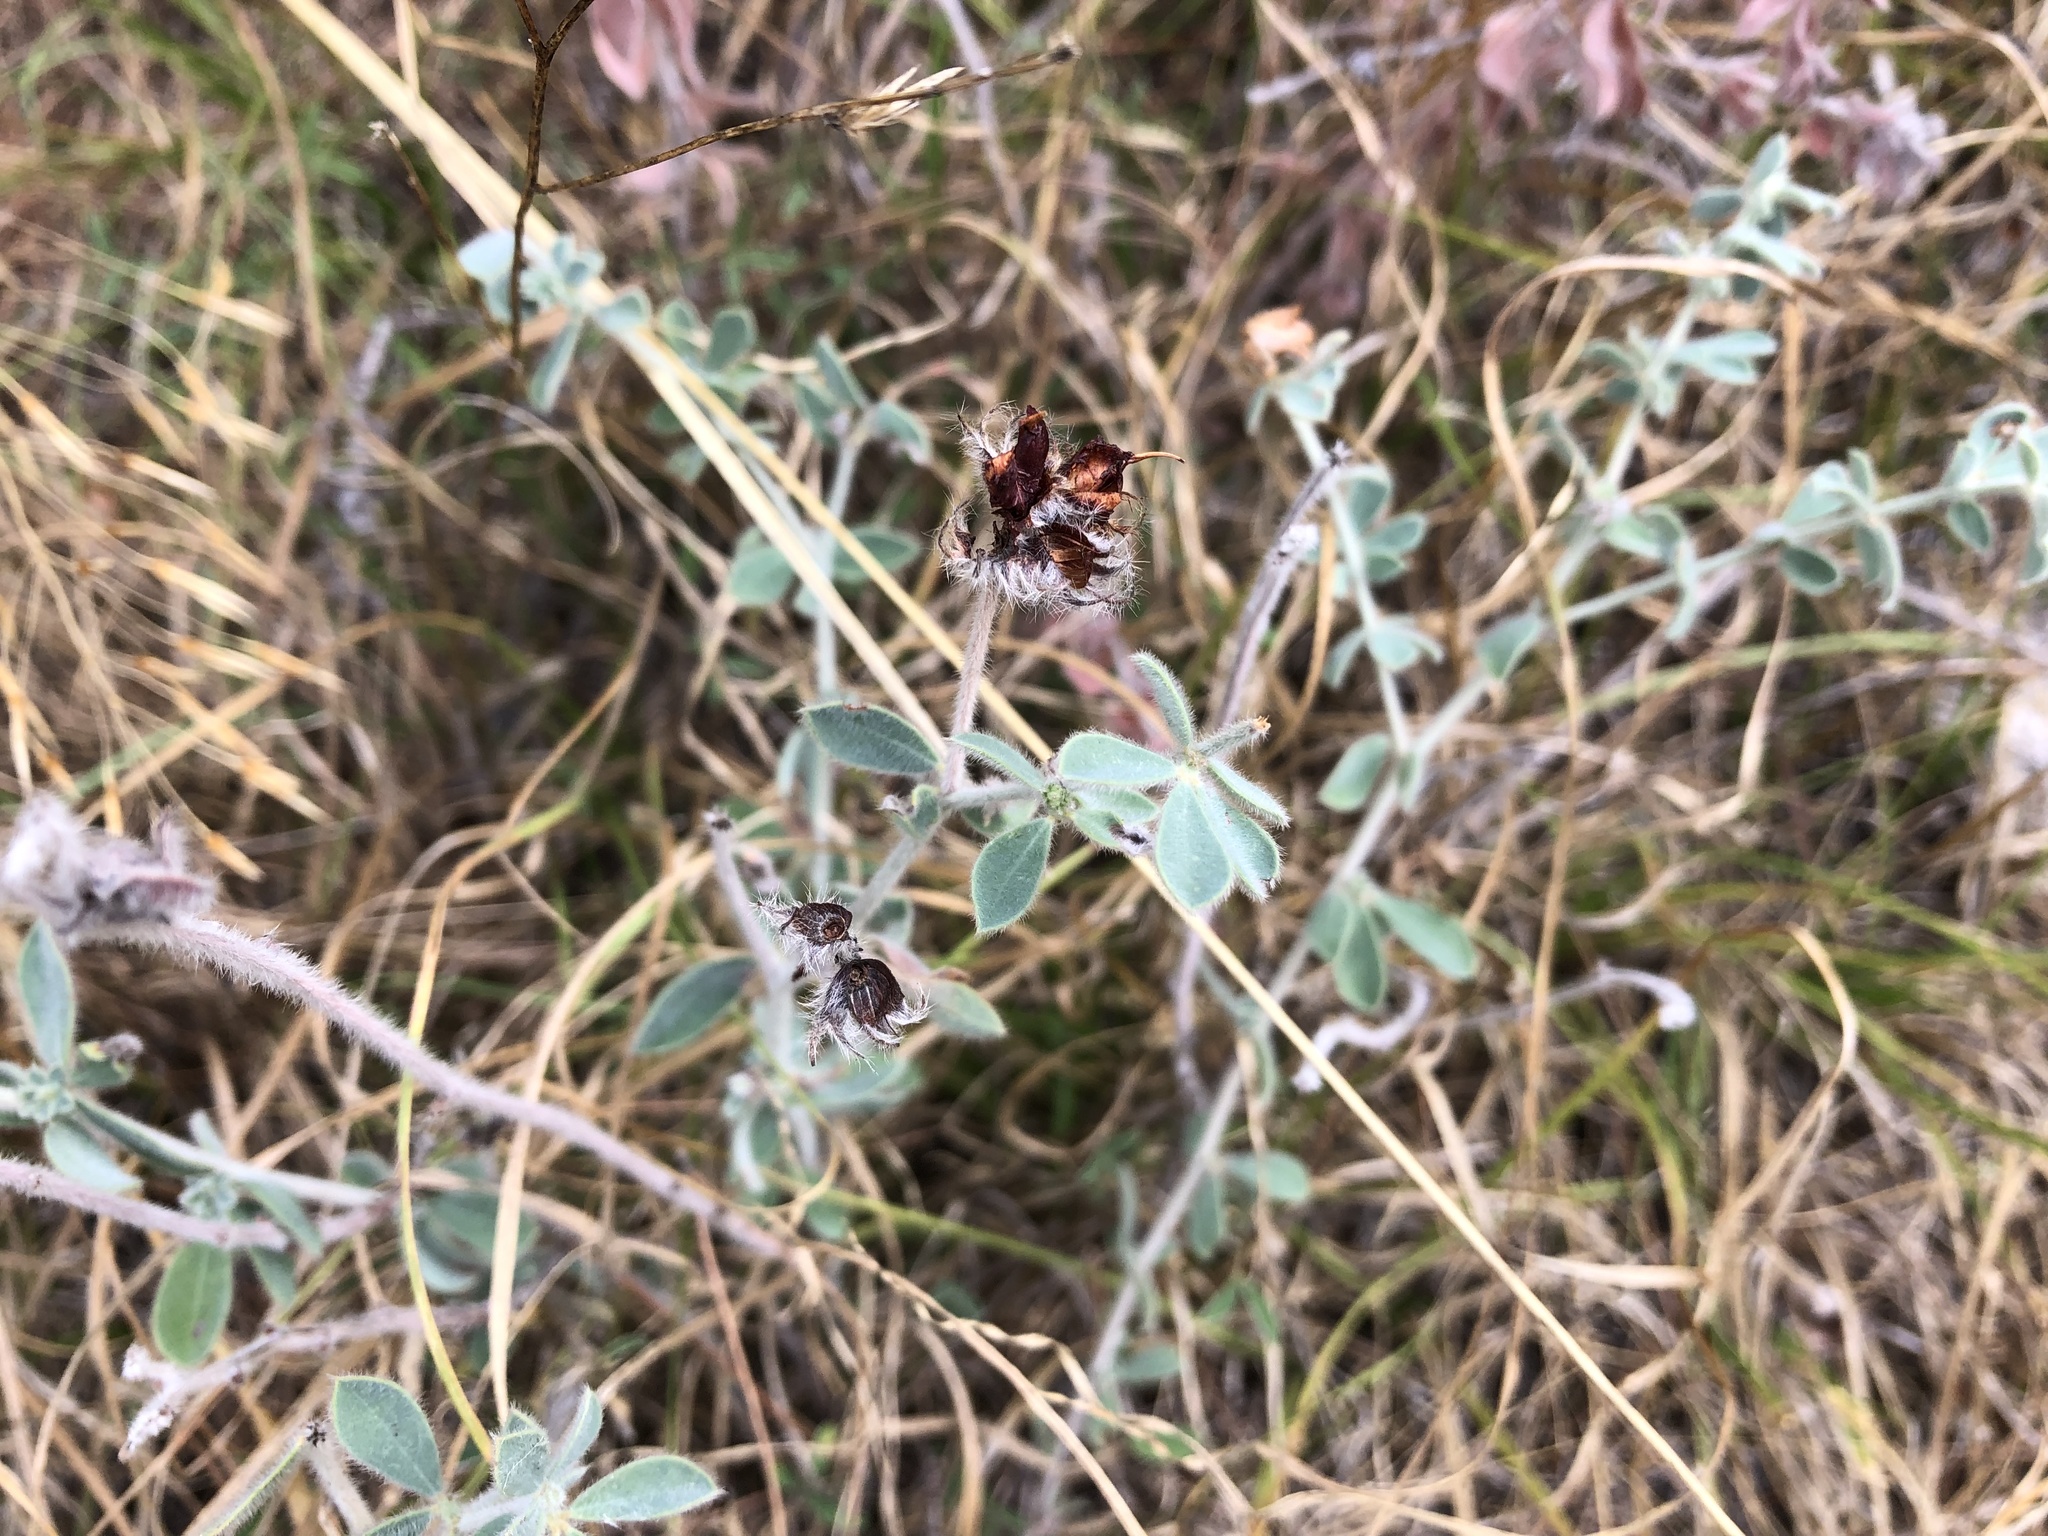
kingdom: Plantae
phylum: Tracheophyta
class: Magnoliopsida
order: Fabales
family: Fabaceae
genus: Lotus
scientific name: Lotus hirsutus
